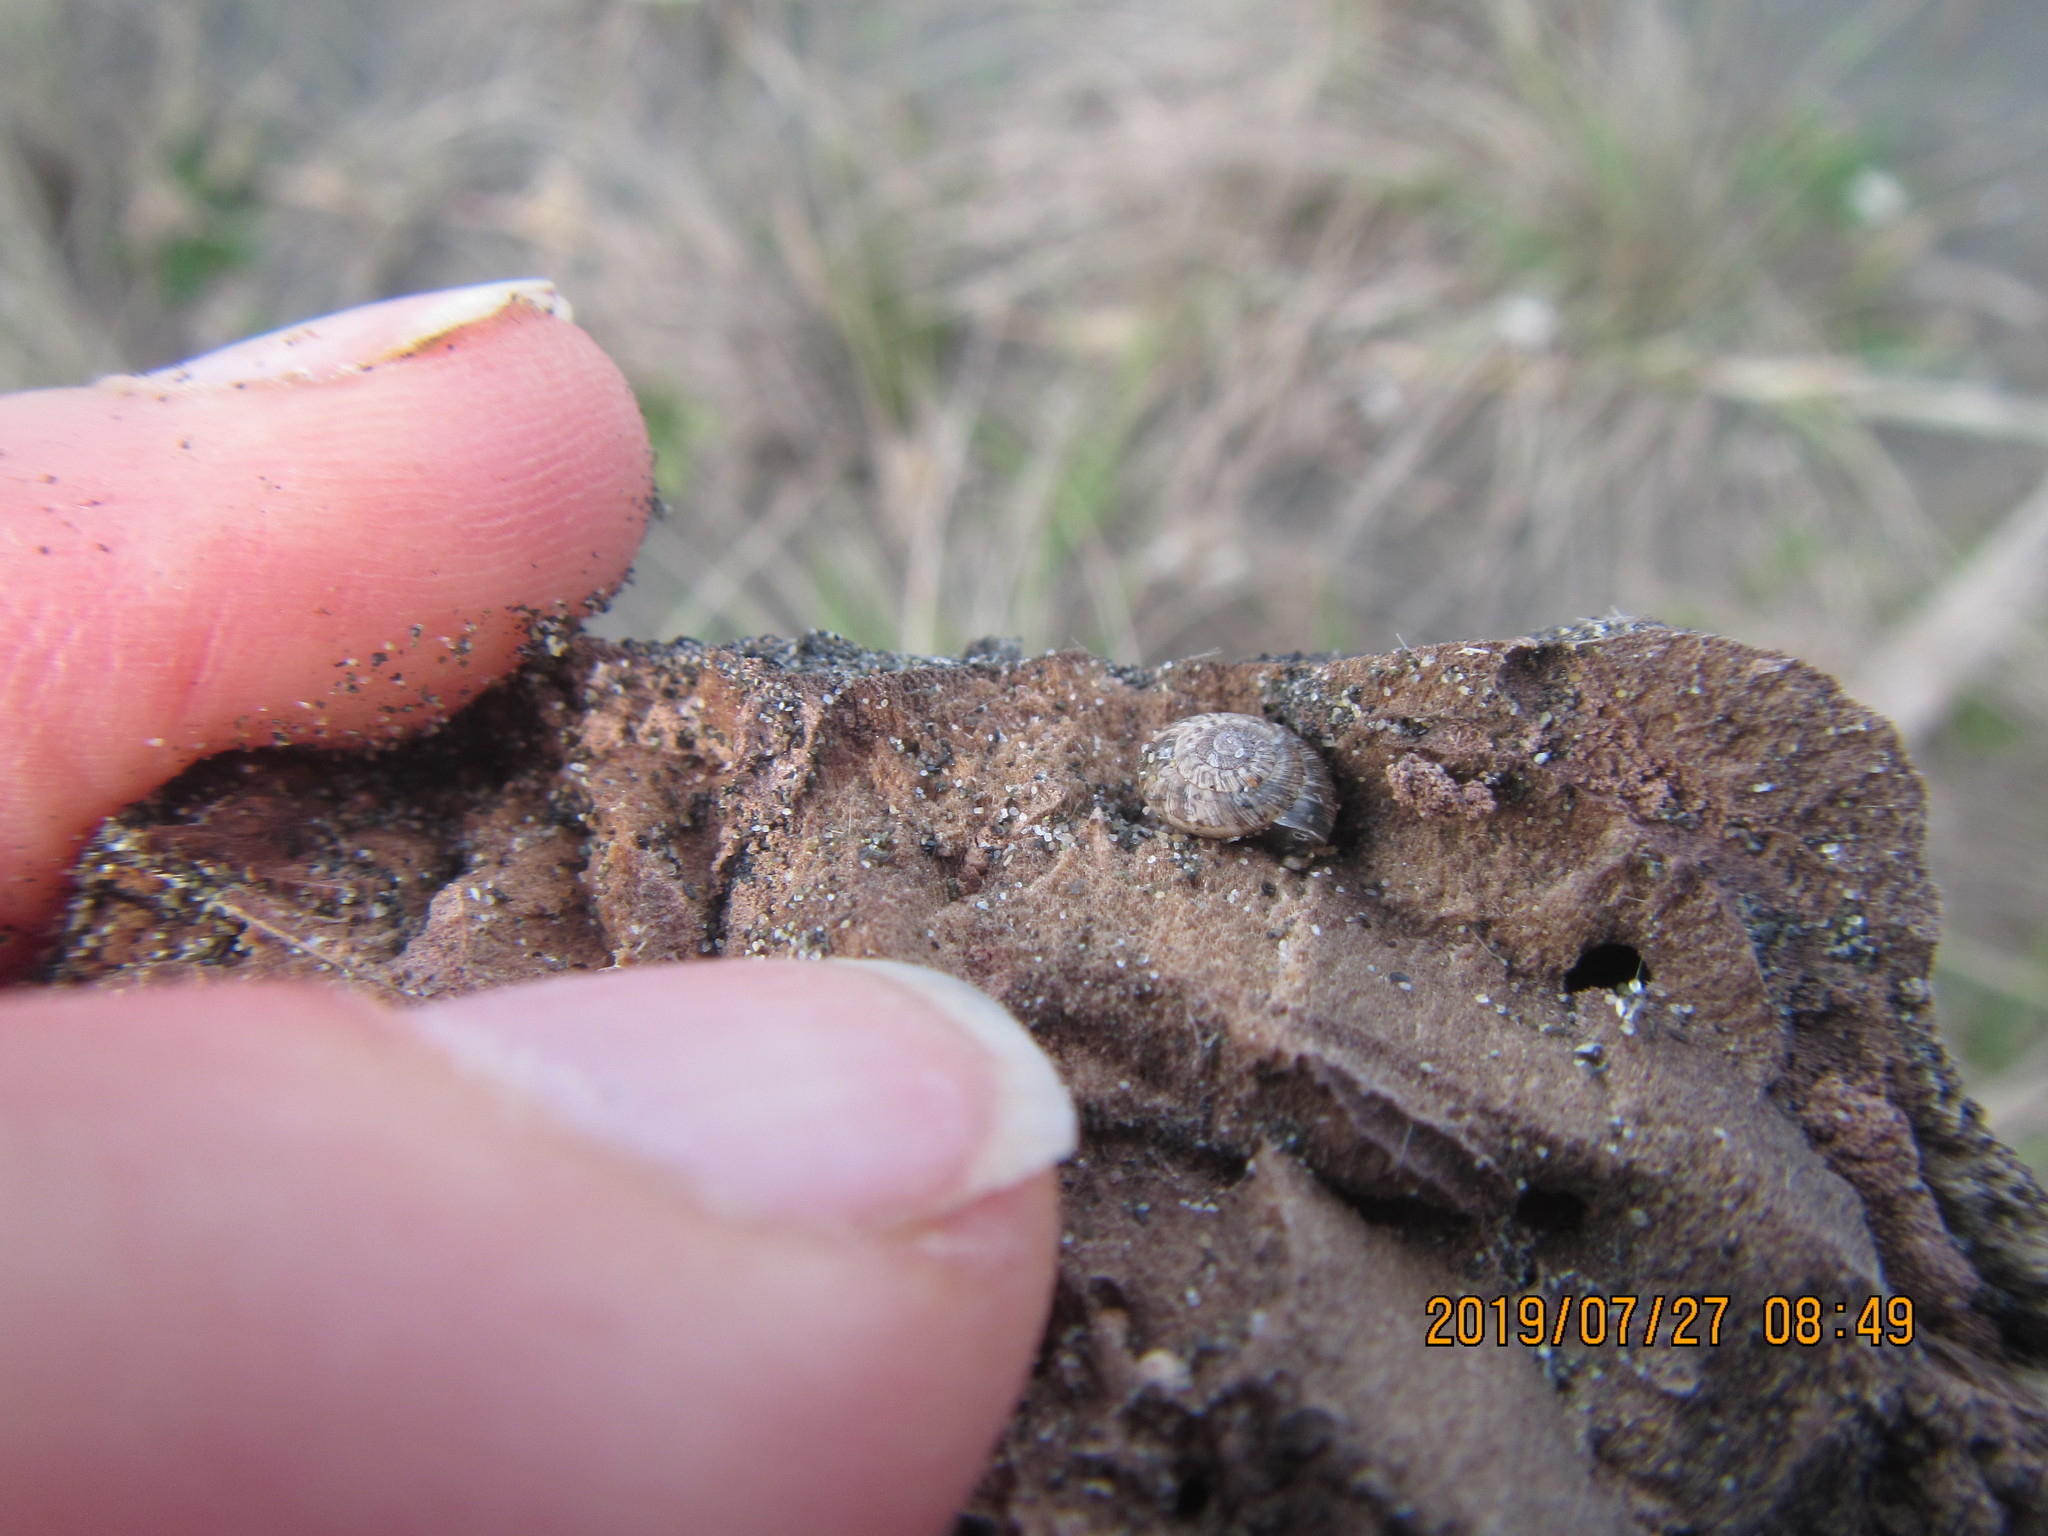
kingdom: Animalia
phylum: Mollusca
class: Gastropoda
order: Stylommatophora
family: Geomitridae
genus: Xeroplexa
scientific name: Xeroplexa intersecta
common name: Wrinkled snail
